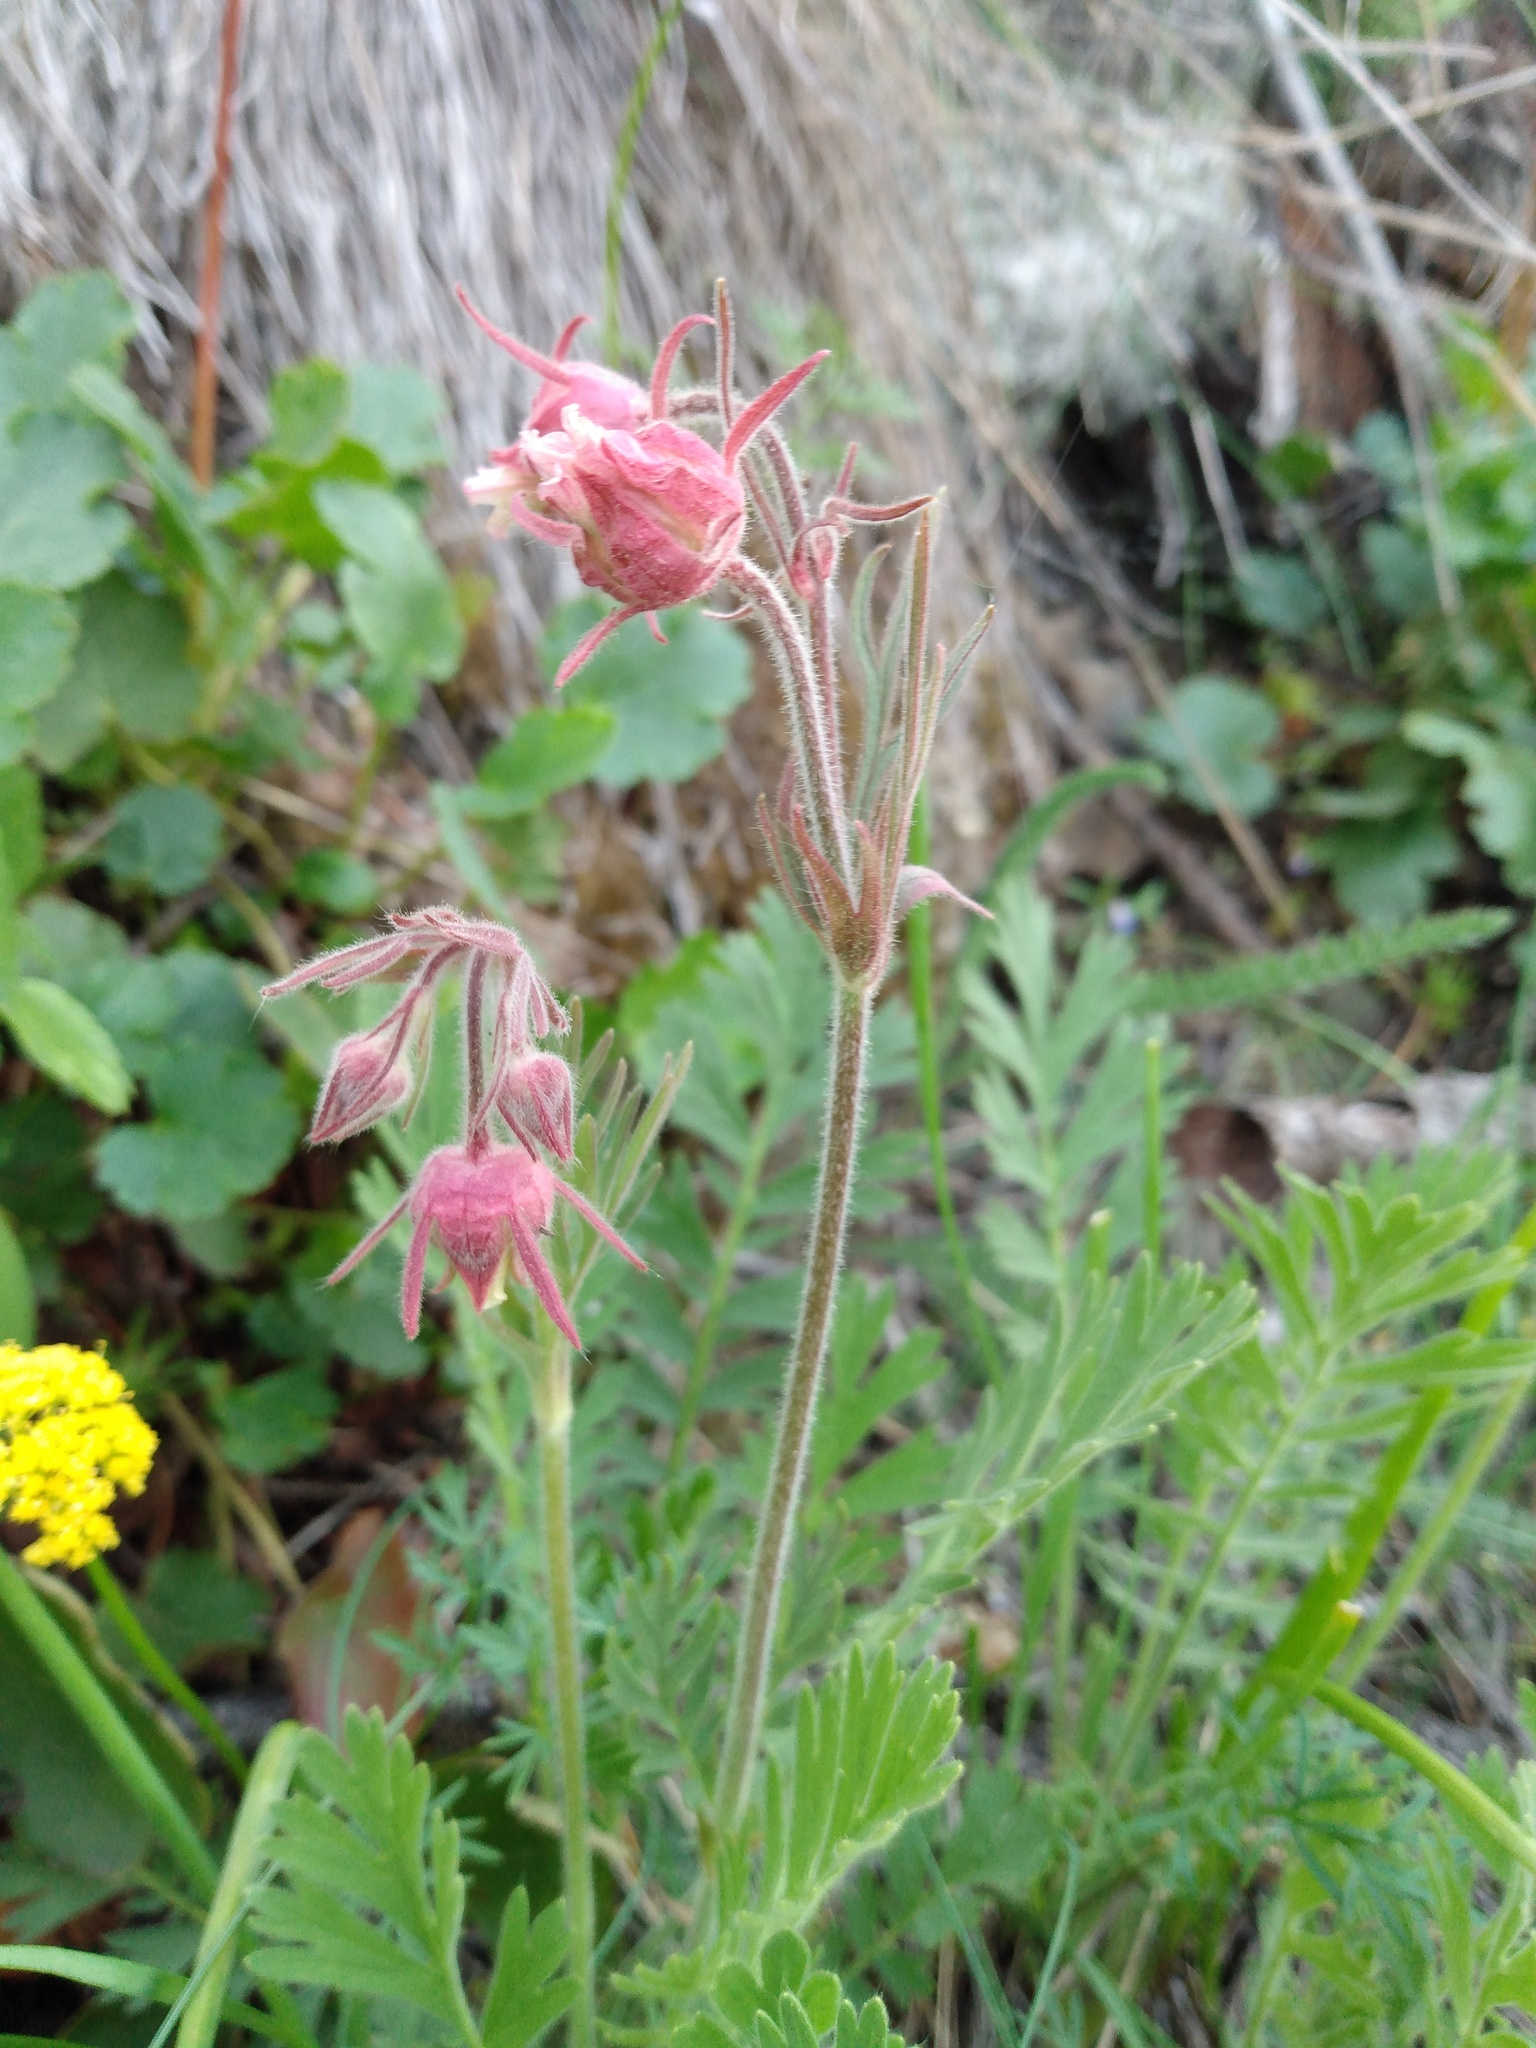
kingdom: Plantae
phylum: Tracheophyta
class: Magnoliopsida
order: Rosales
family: Rosaceae
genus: Geum
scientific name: Geum triflorum
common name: Old man's whiskers
